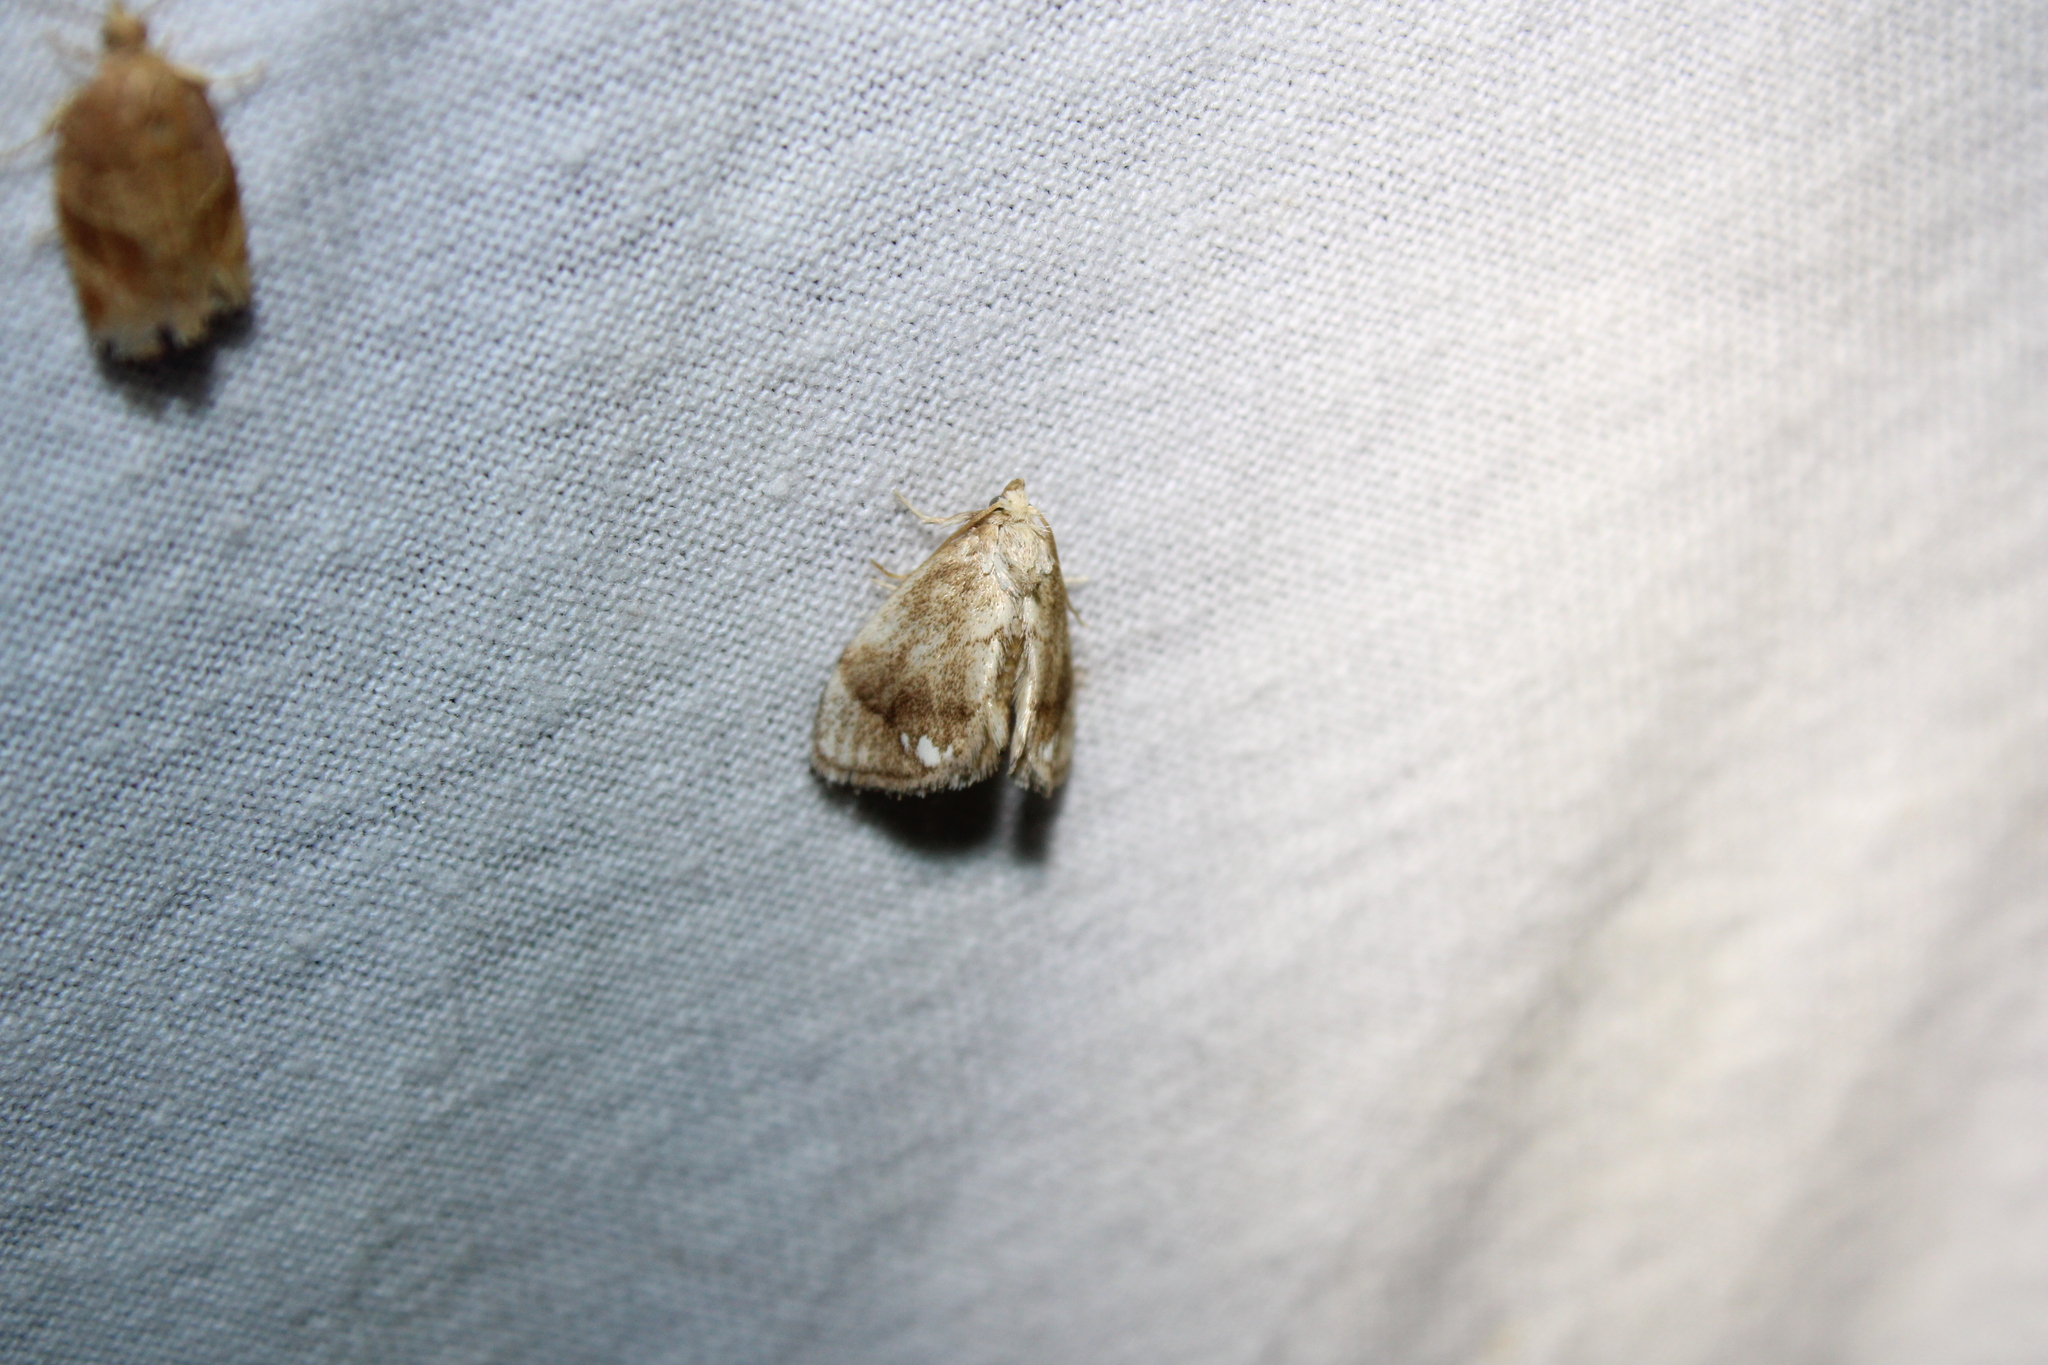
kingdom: Animalia
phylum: Arthropoda
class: Insecta
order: Lepidoptera
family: Limacodidae
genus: Packardia
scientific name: Packardia geminata
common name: Jeweled tailed slug moth
